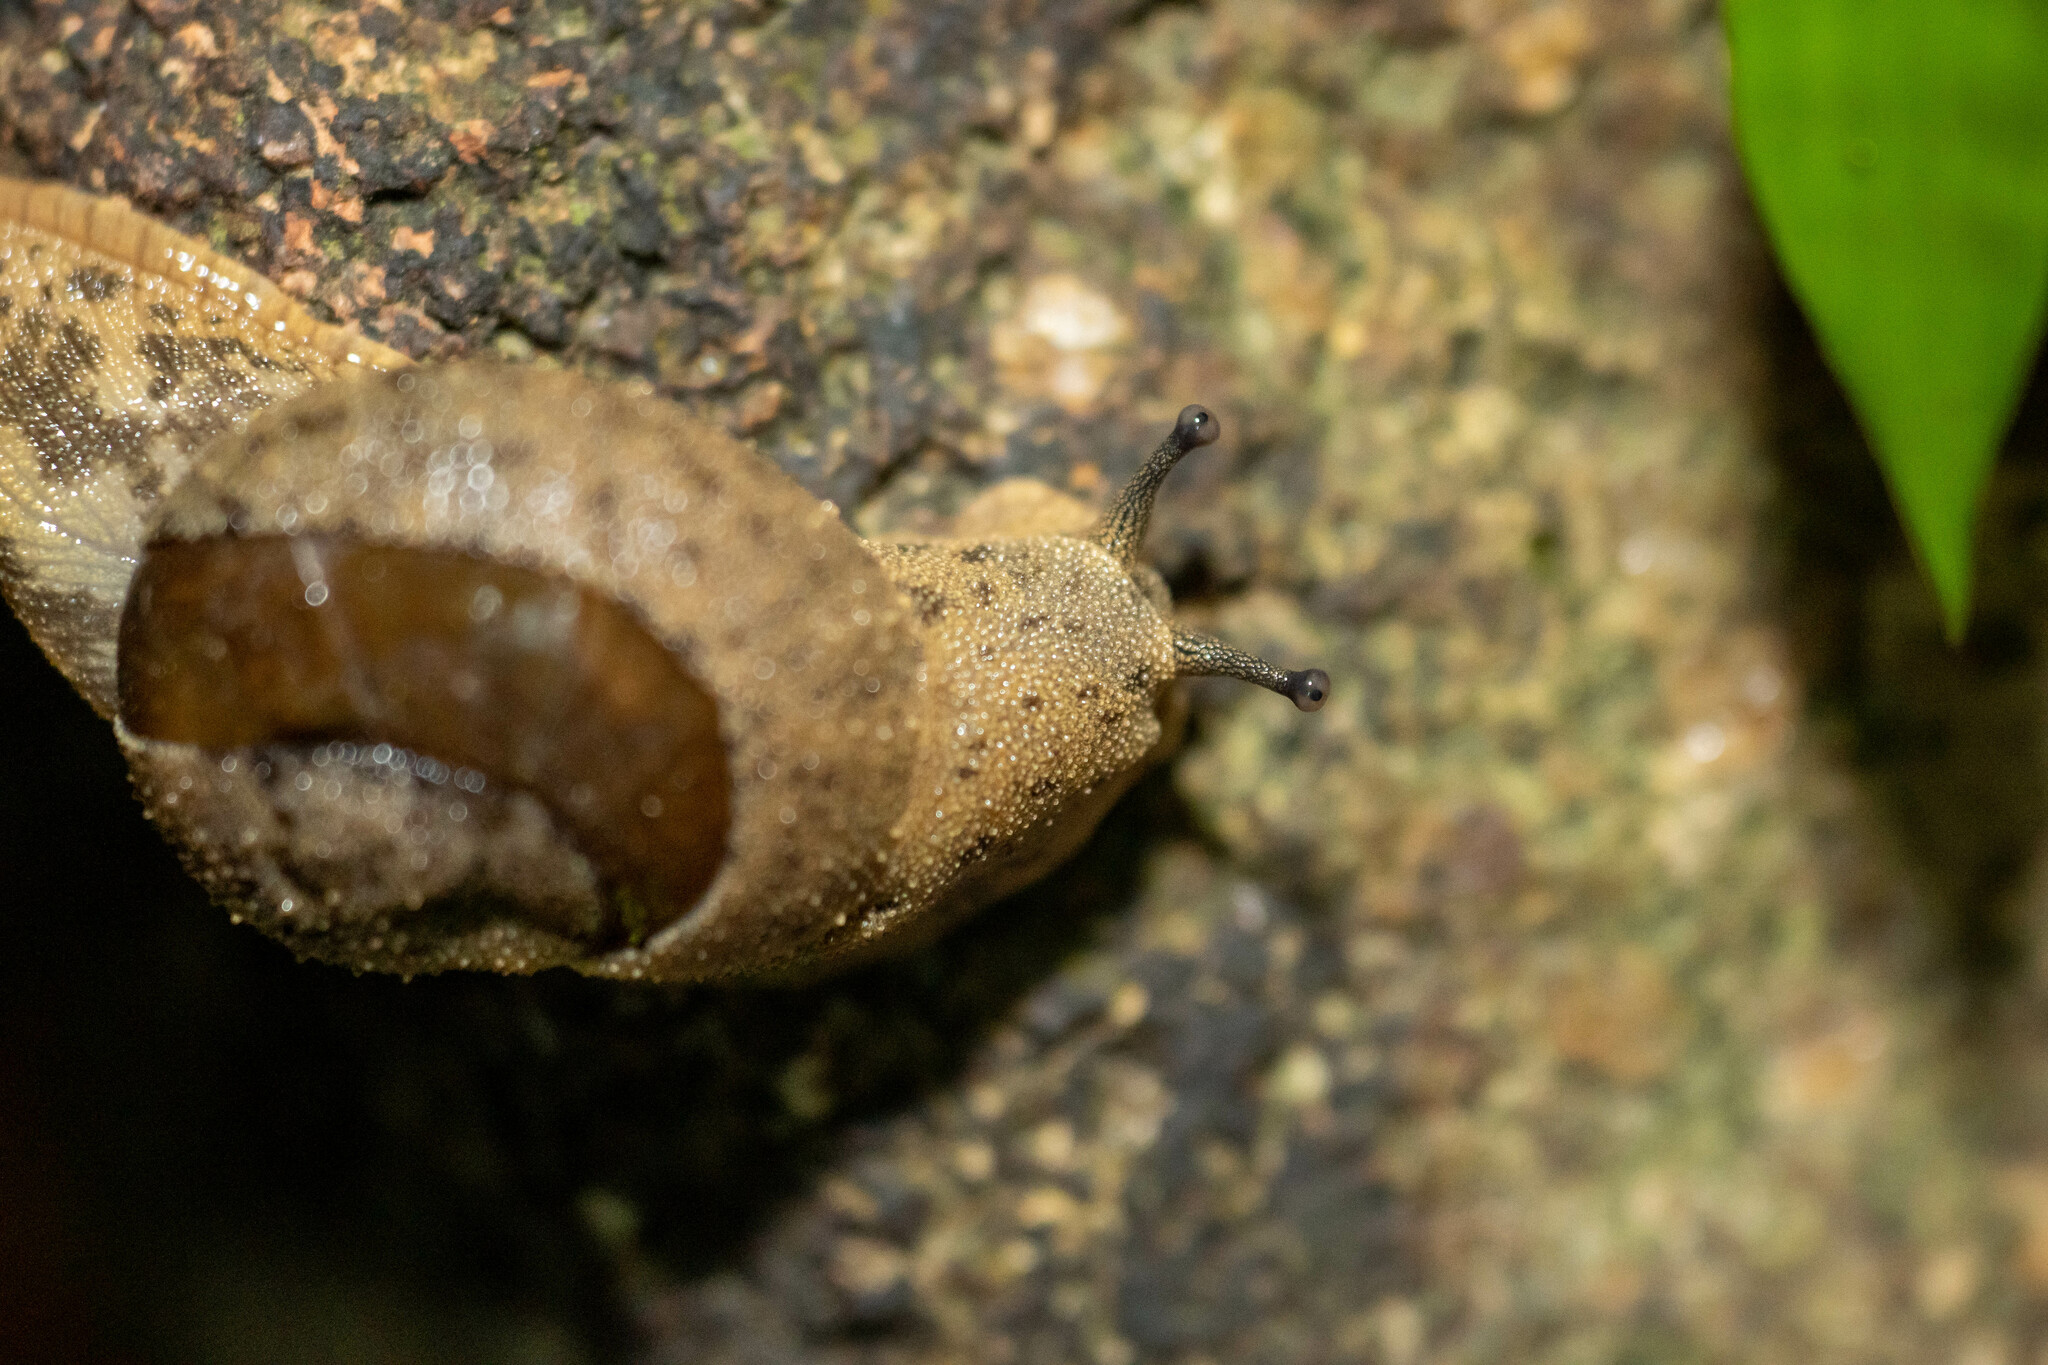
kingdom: Animalia
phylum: Mollusca
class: Gastropoda
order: Stylommatophora
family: Ariophantidae
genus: Megaustenia
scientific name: Megaustenia imperator
